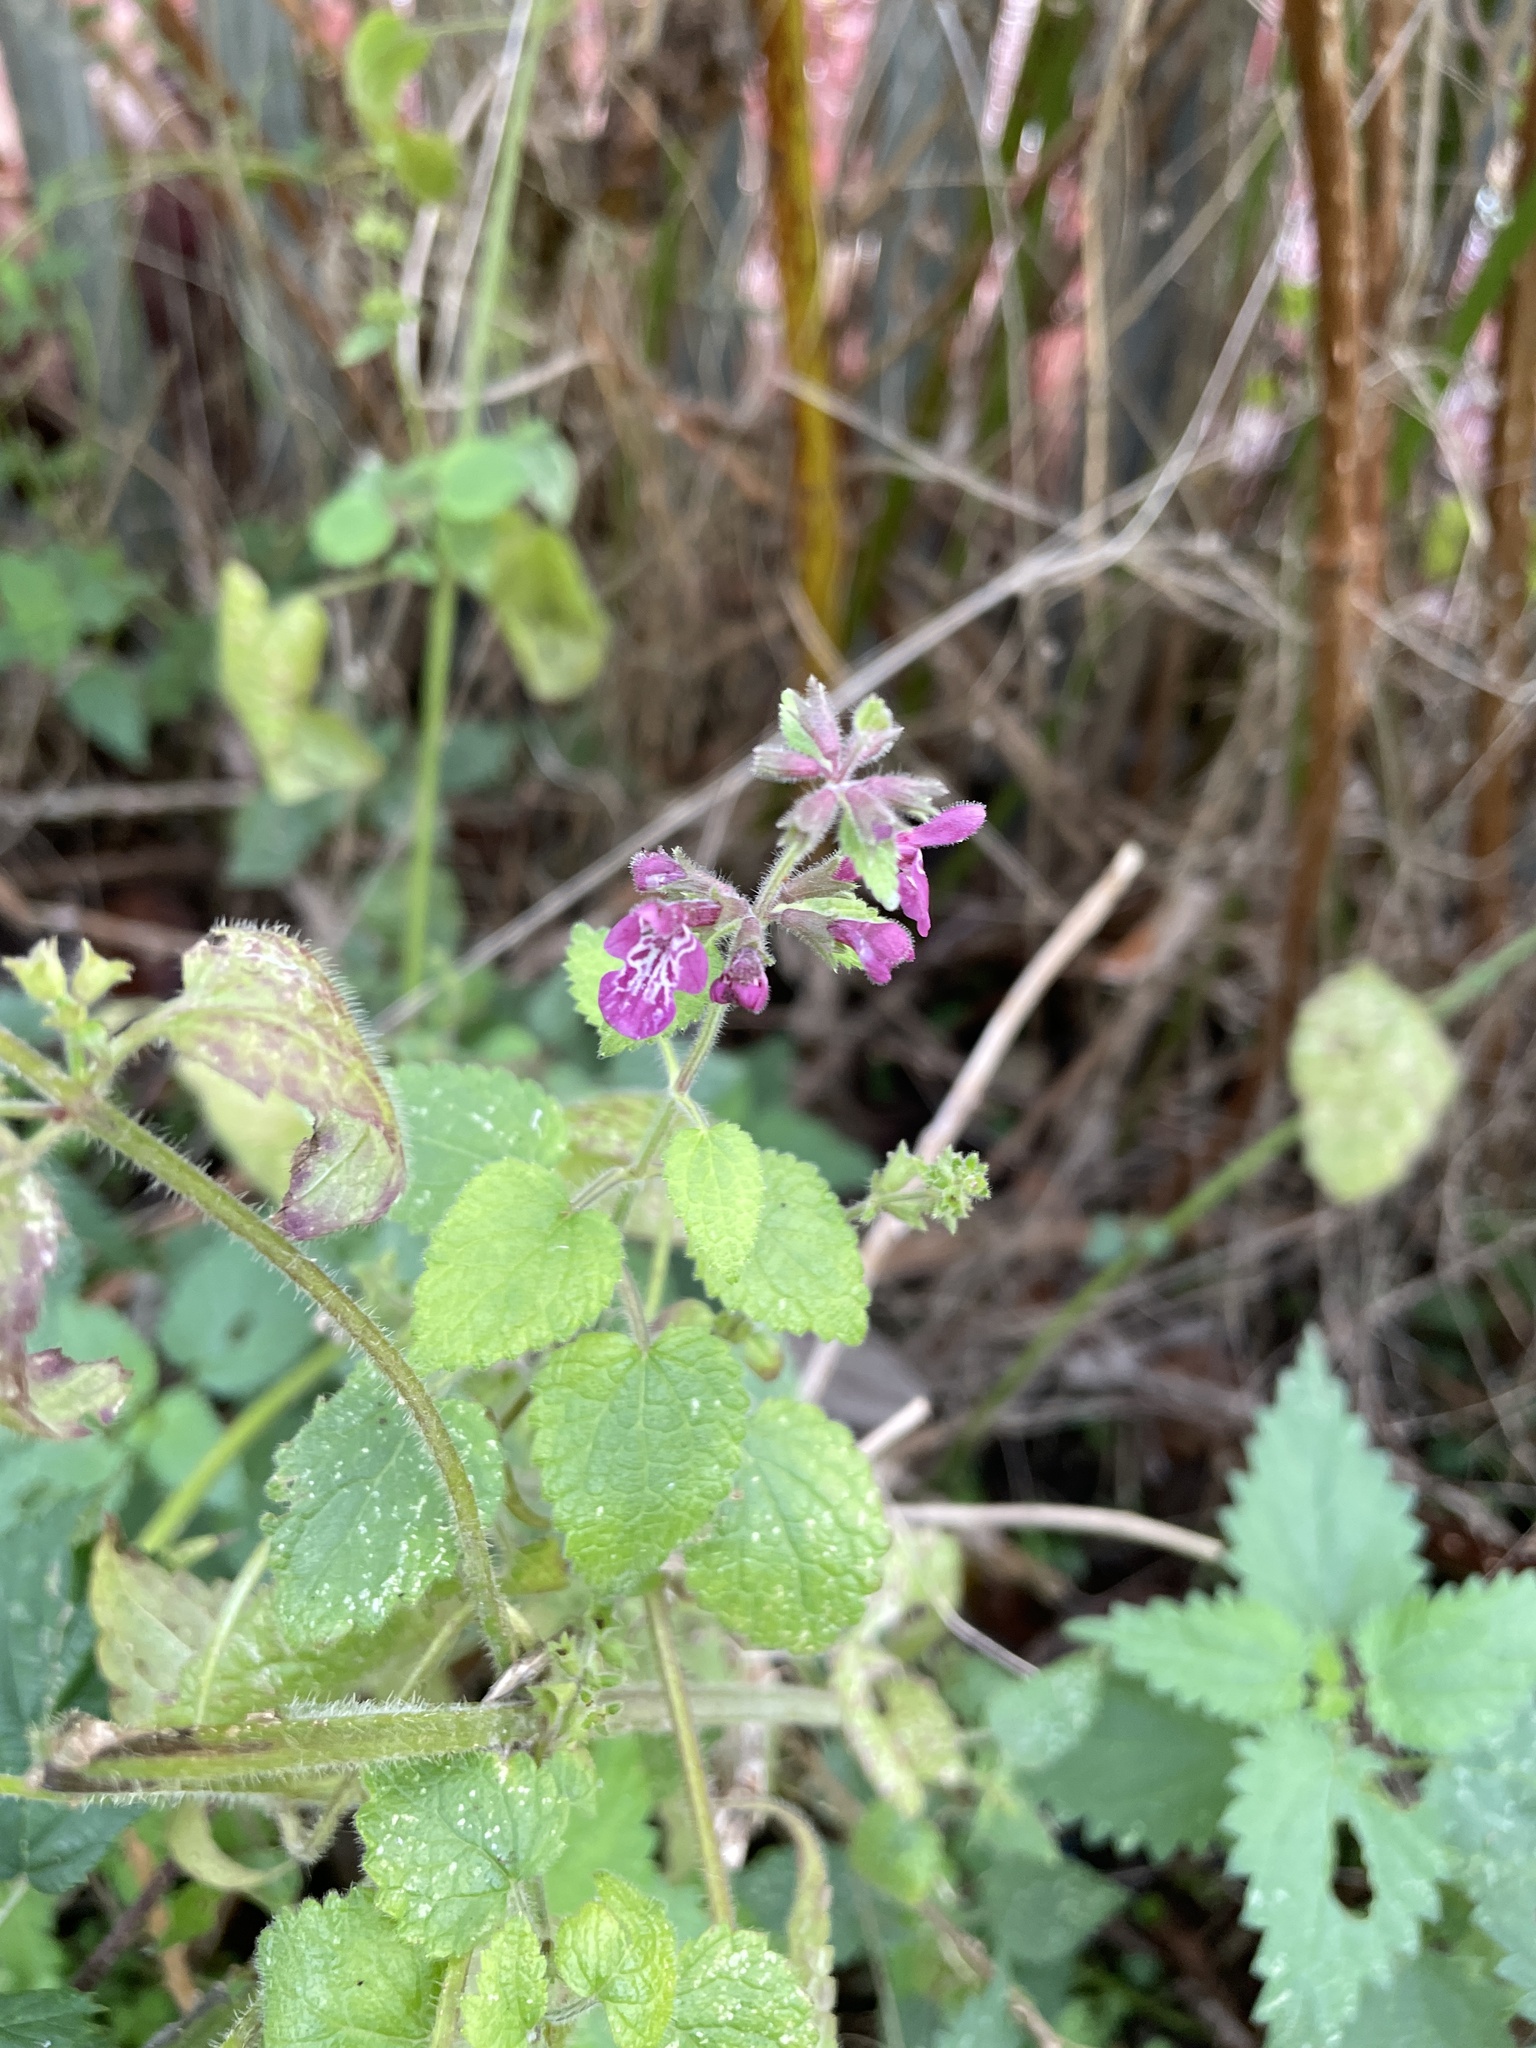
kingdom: Plantae
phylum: Tracheophyta
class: Magnoliopsida
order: Lamiales
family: Lamiaceae
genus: Stachys
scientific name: Stachys sylvatica
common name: Hedge woundwort
